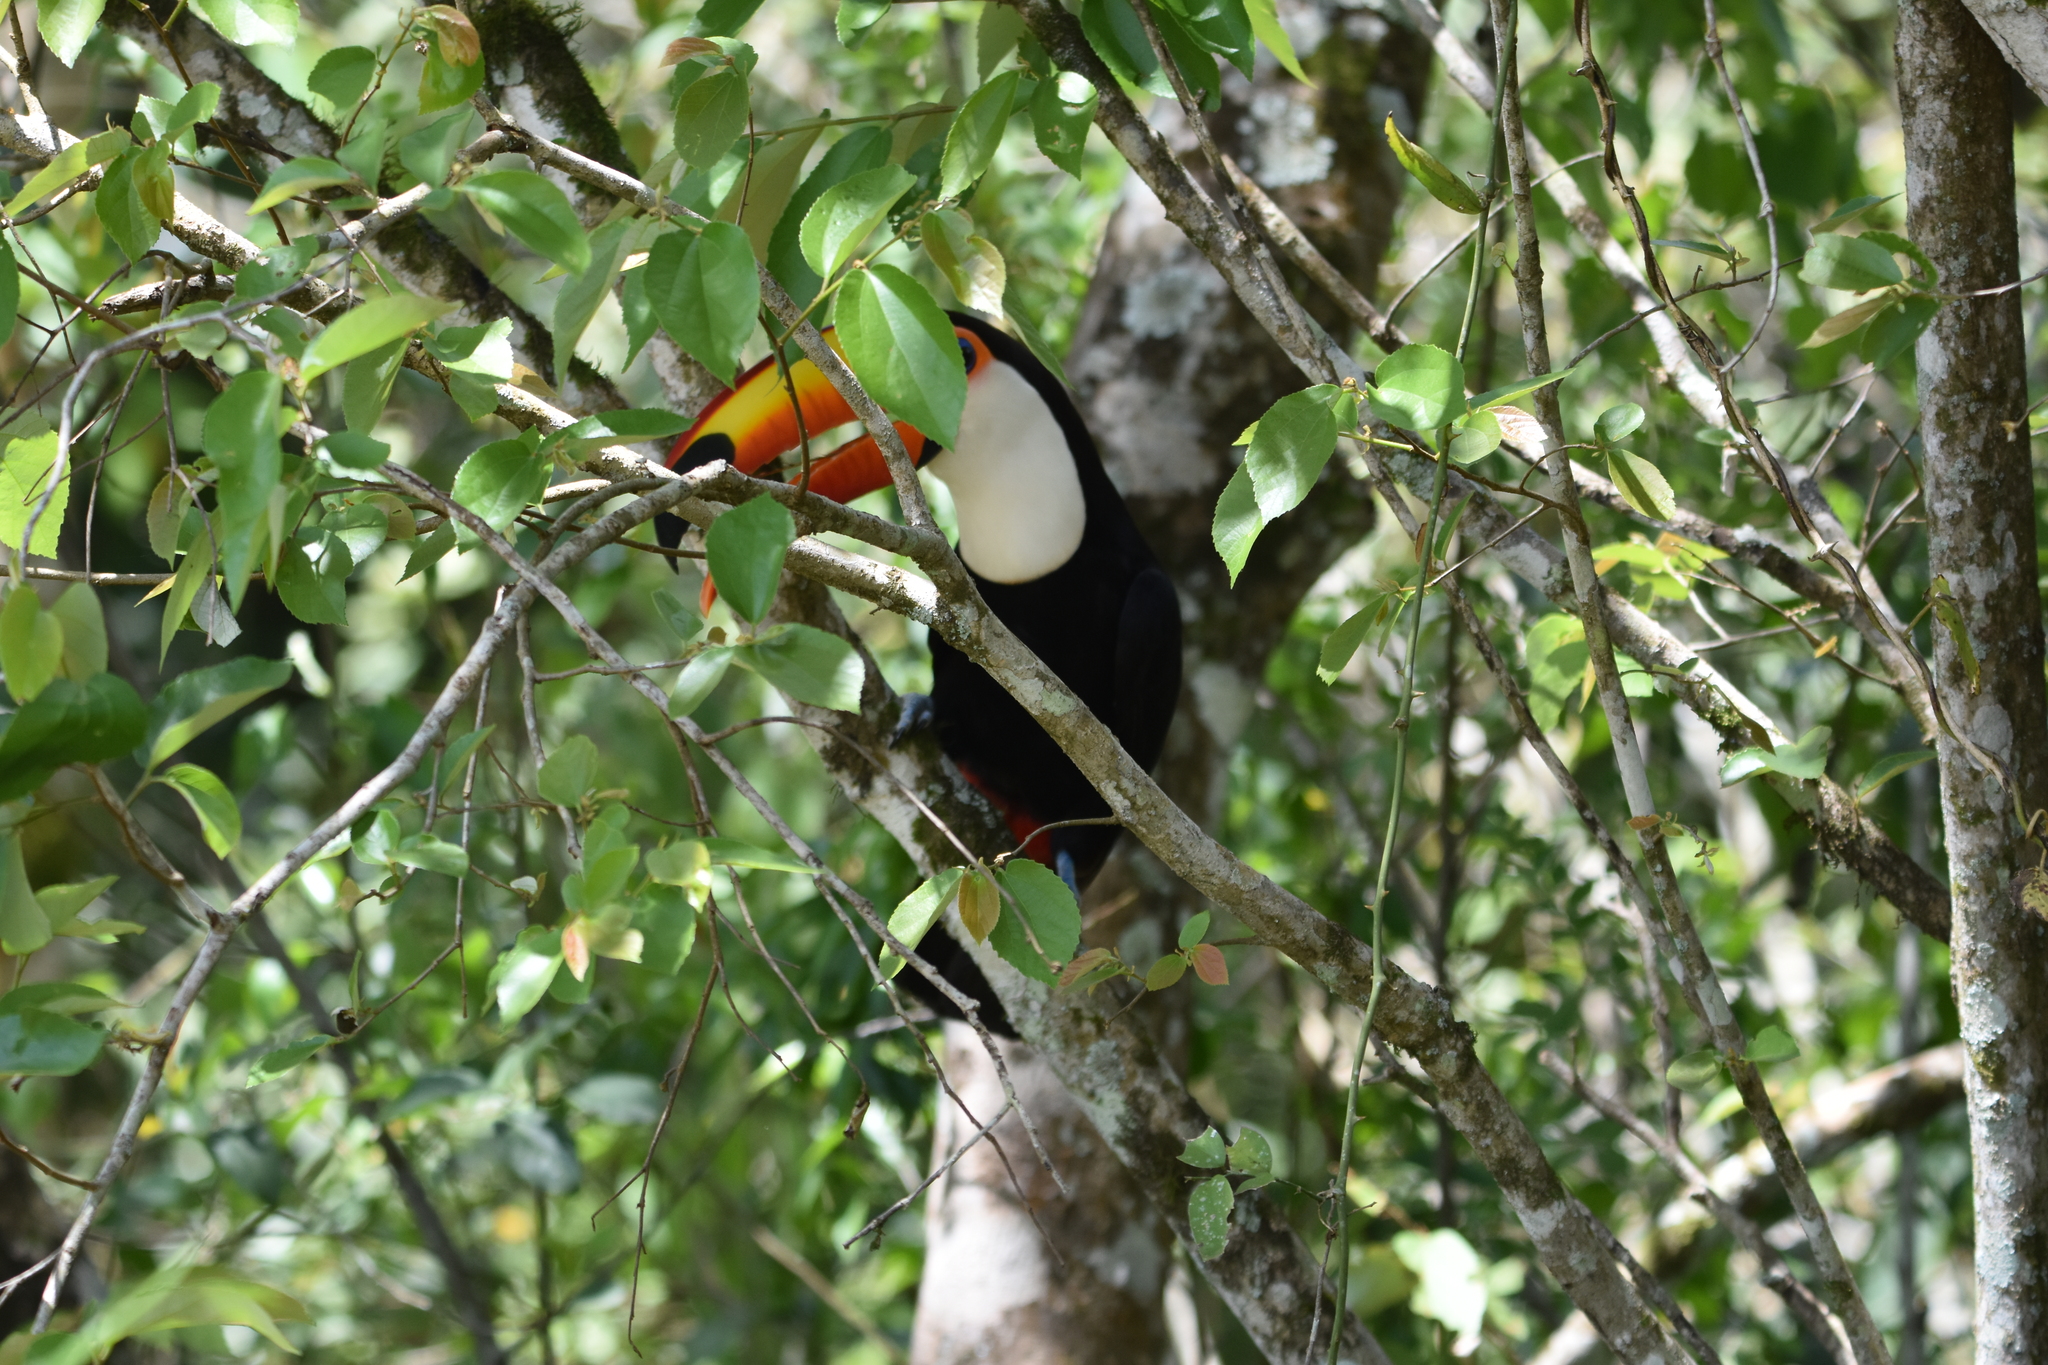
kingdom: Animalia
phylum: Chordata
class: Aves
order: Piciformes
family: Ramphastidae
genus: Ramphastos
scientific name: Ramphastos toco
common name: Toco toucan
